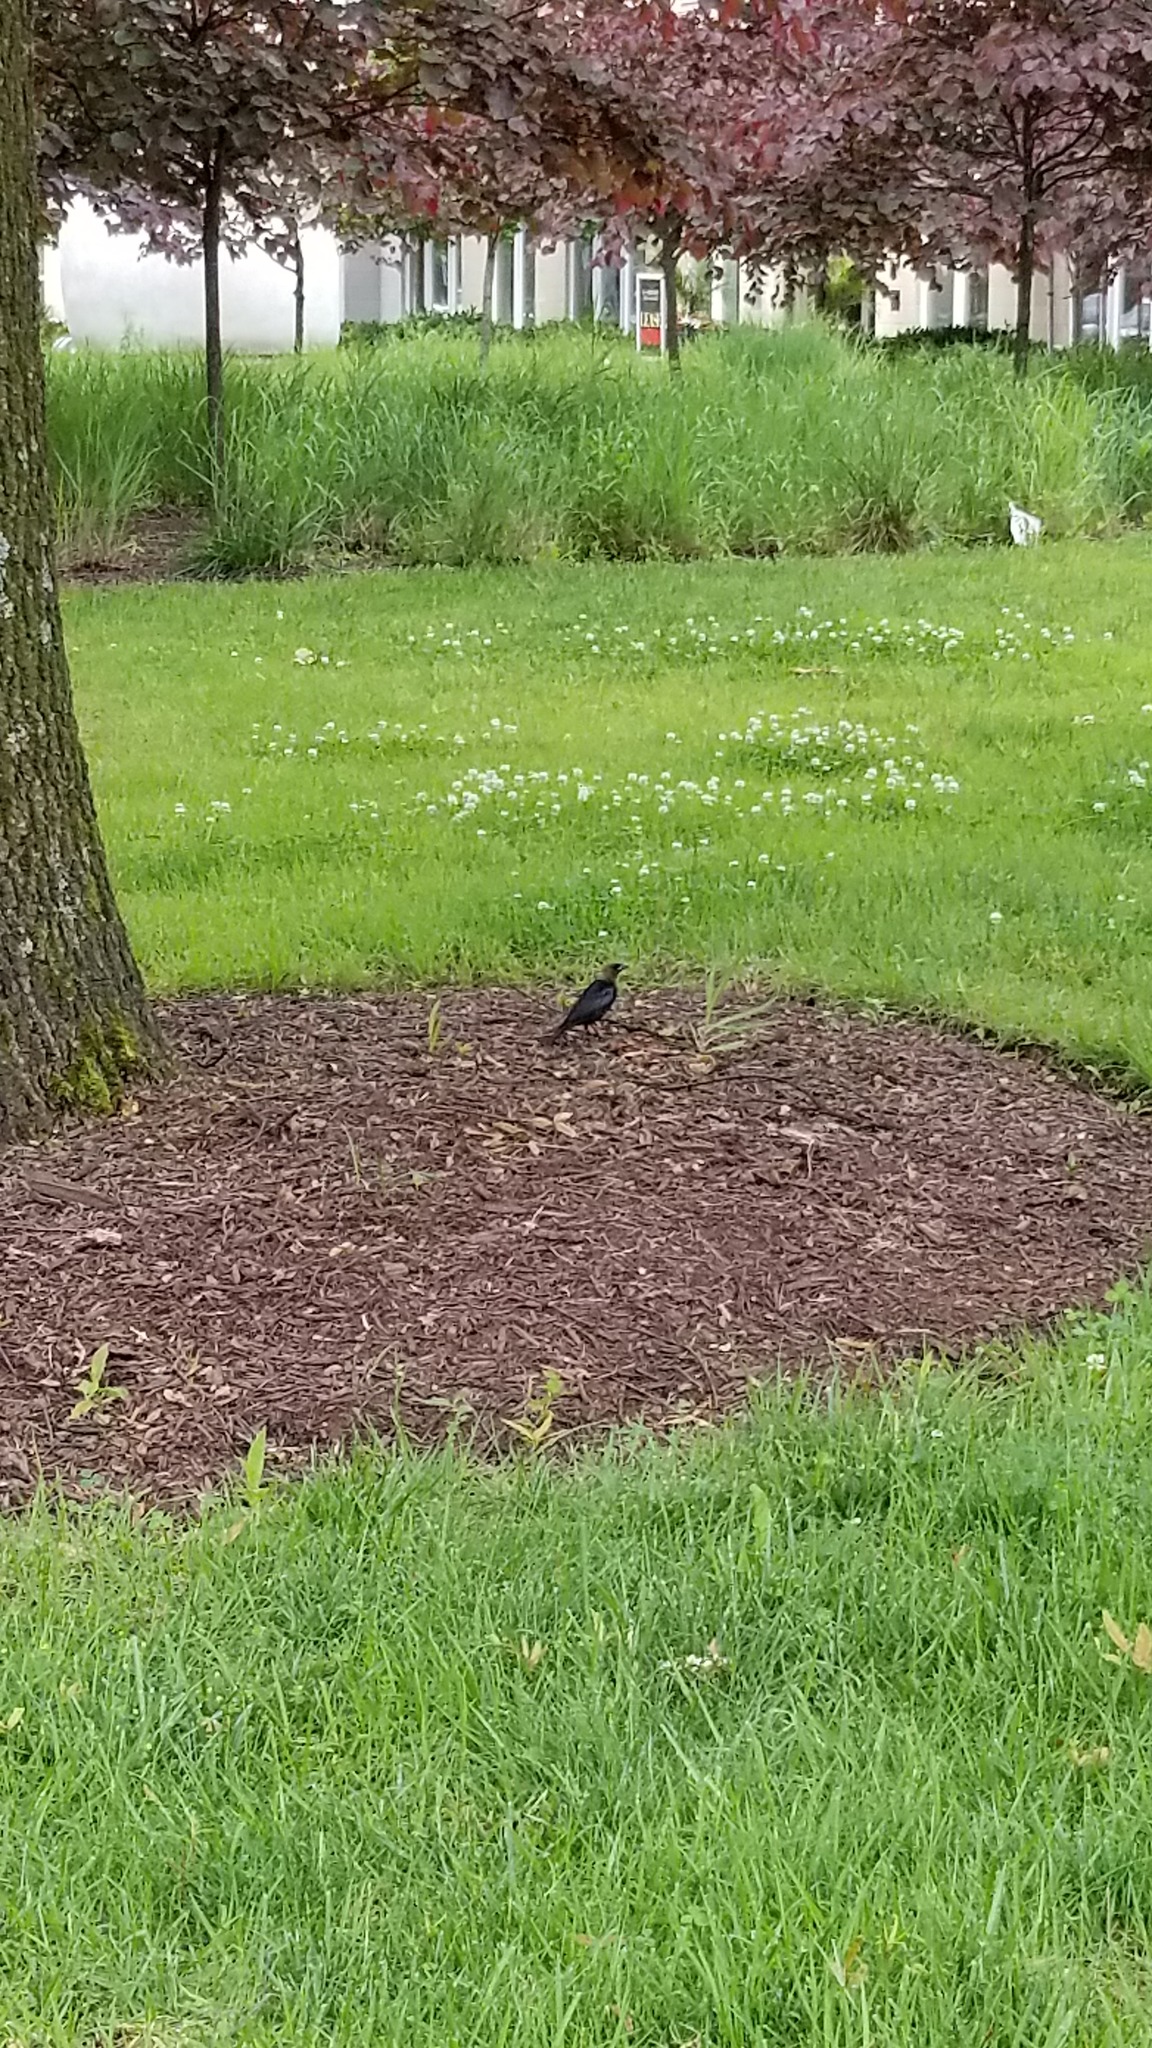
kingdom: Animalia
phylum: Chordata
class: Aves
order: Passeriformes
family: Icteridae
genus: Molothrus
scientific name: Molothrus ater
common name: Brown-headed cowbird
